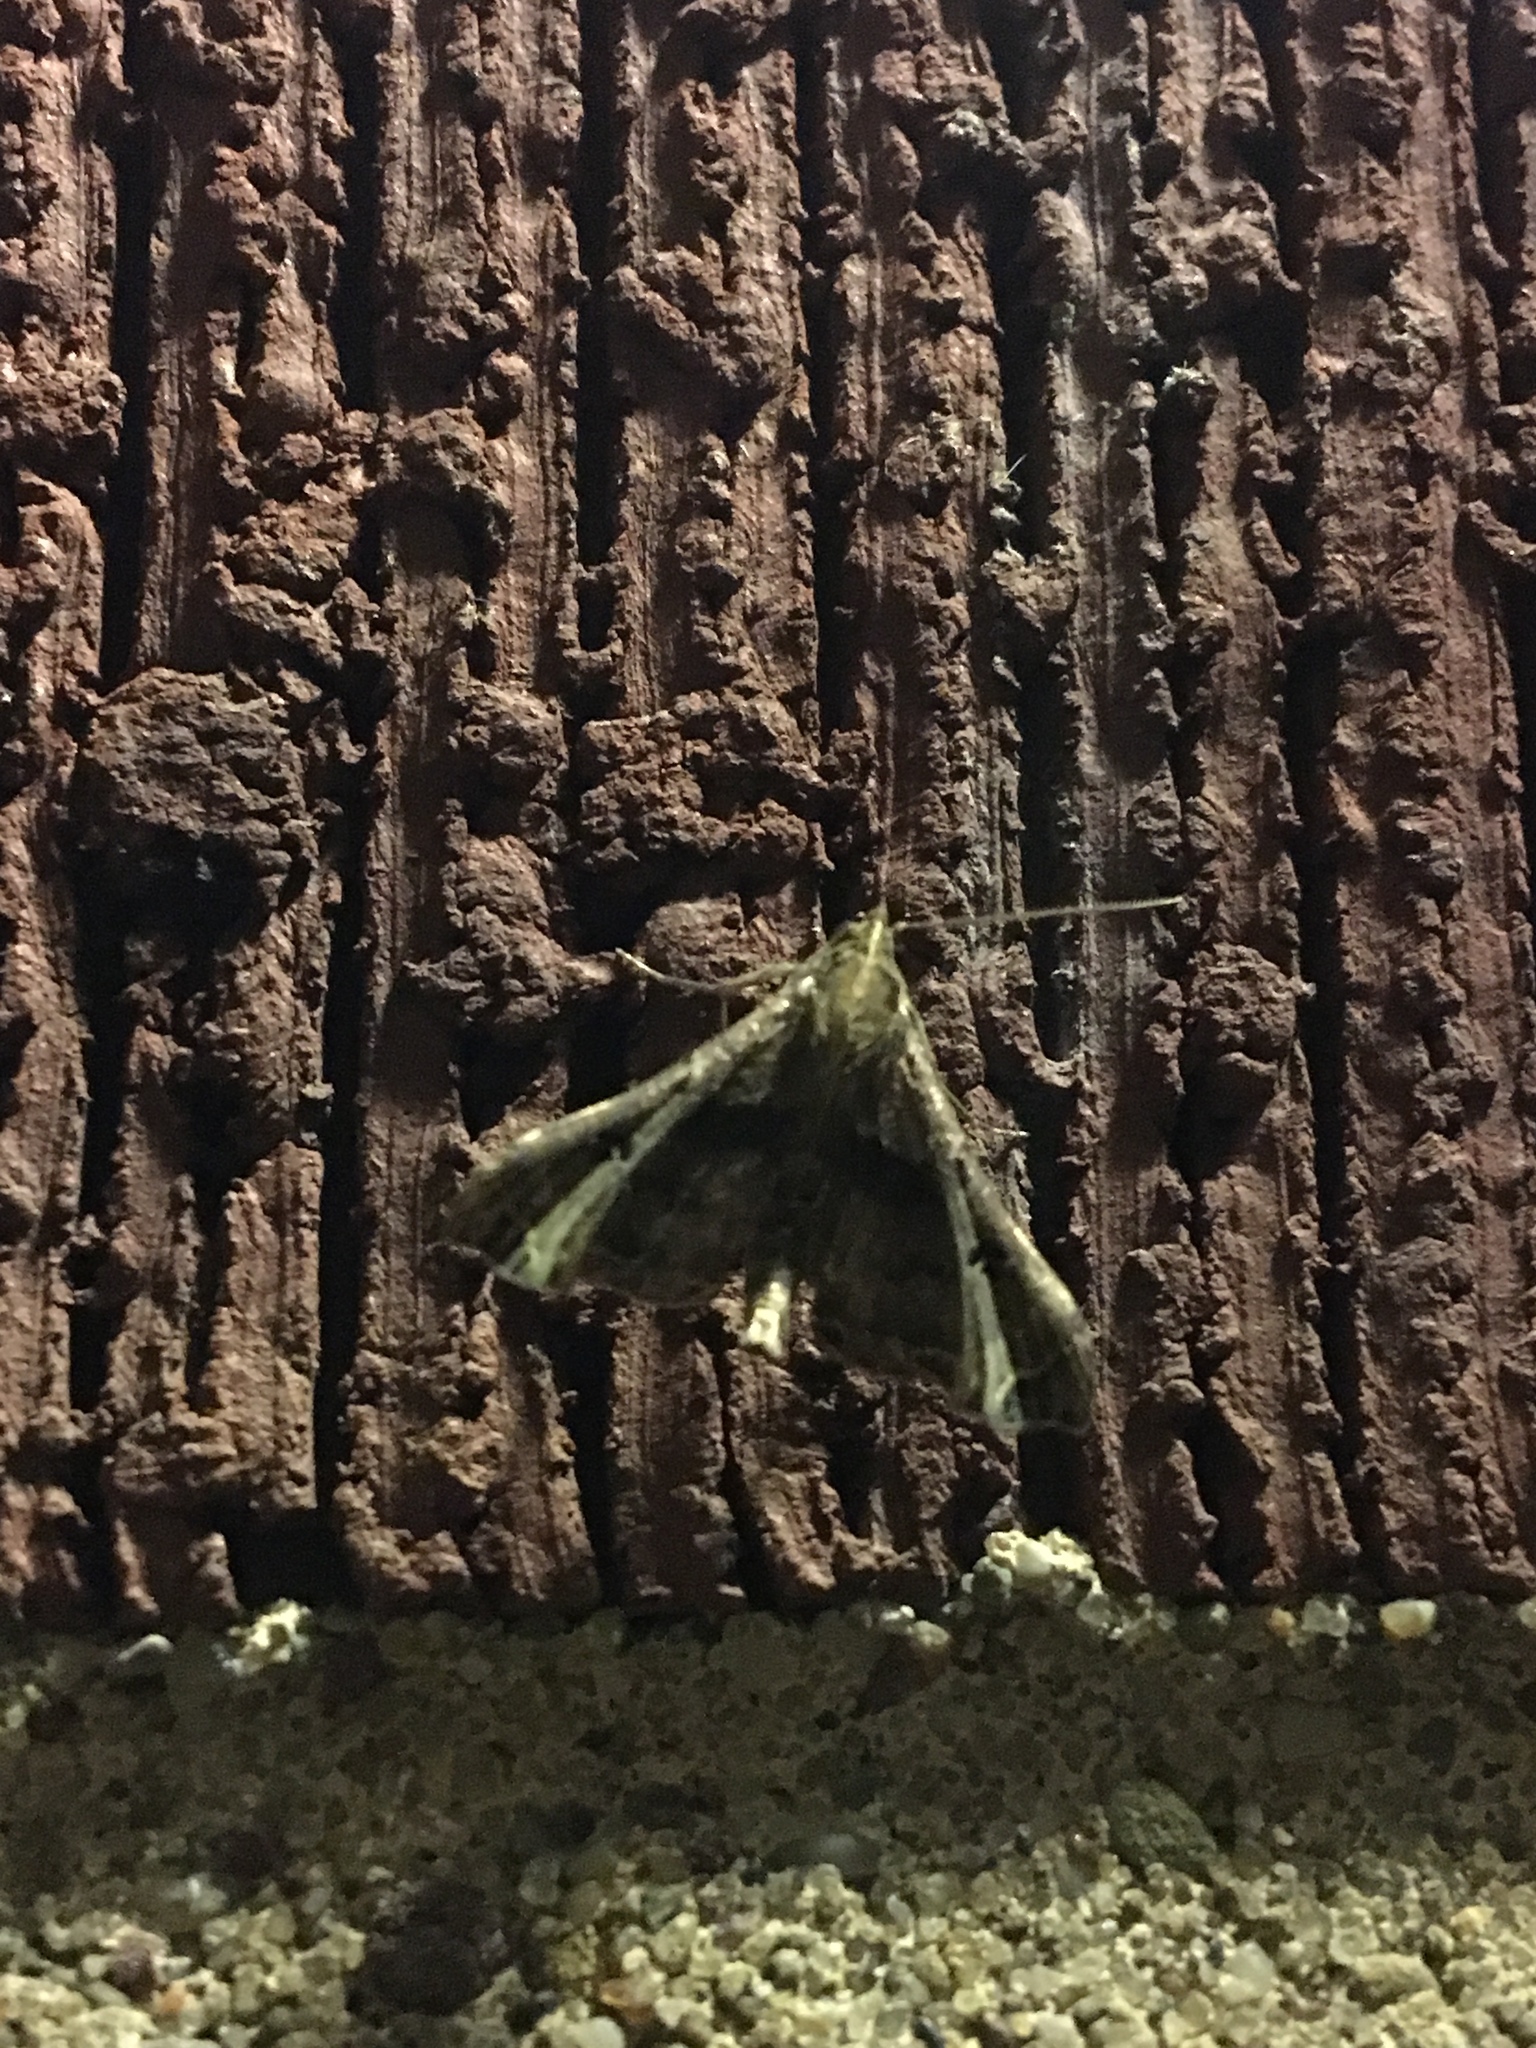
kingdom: Animalia
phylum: Arthropoda
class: Insecta
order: Lepidoptera
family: Erebidae
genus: Palthis
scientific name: Palthis asopialis
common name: Faint-spotted palthis moth
